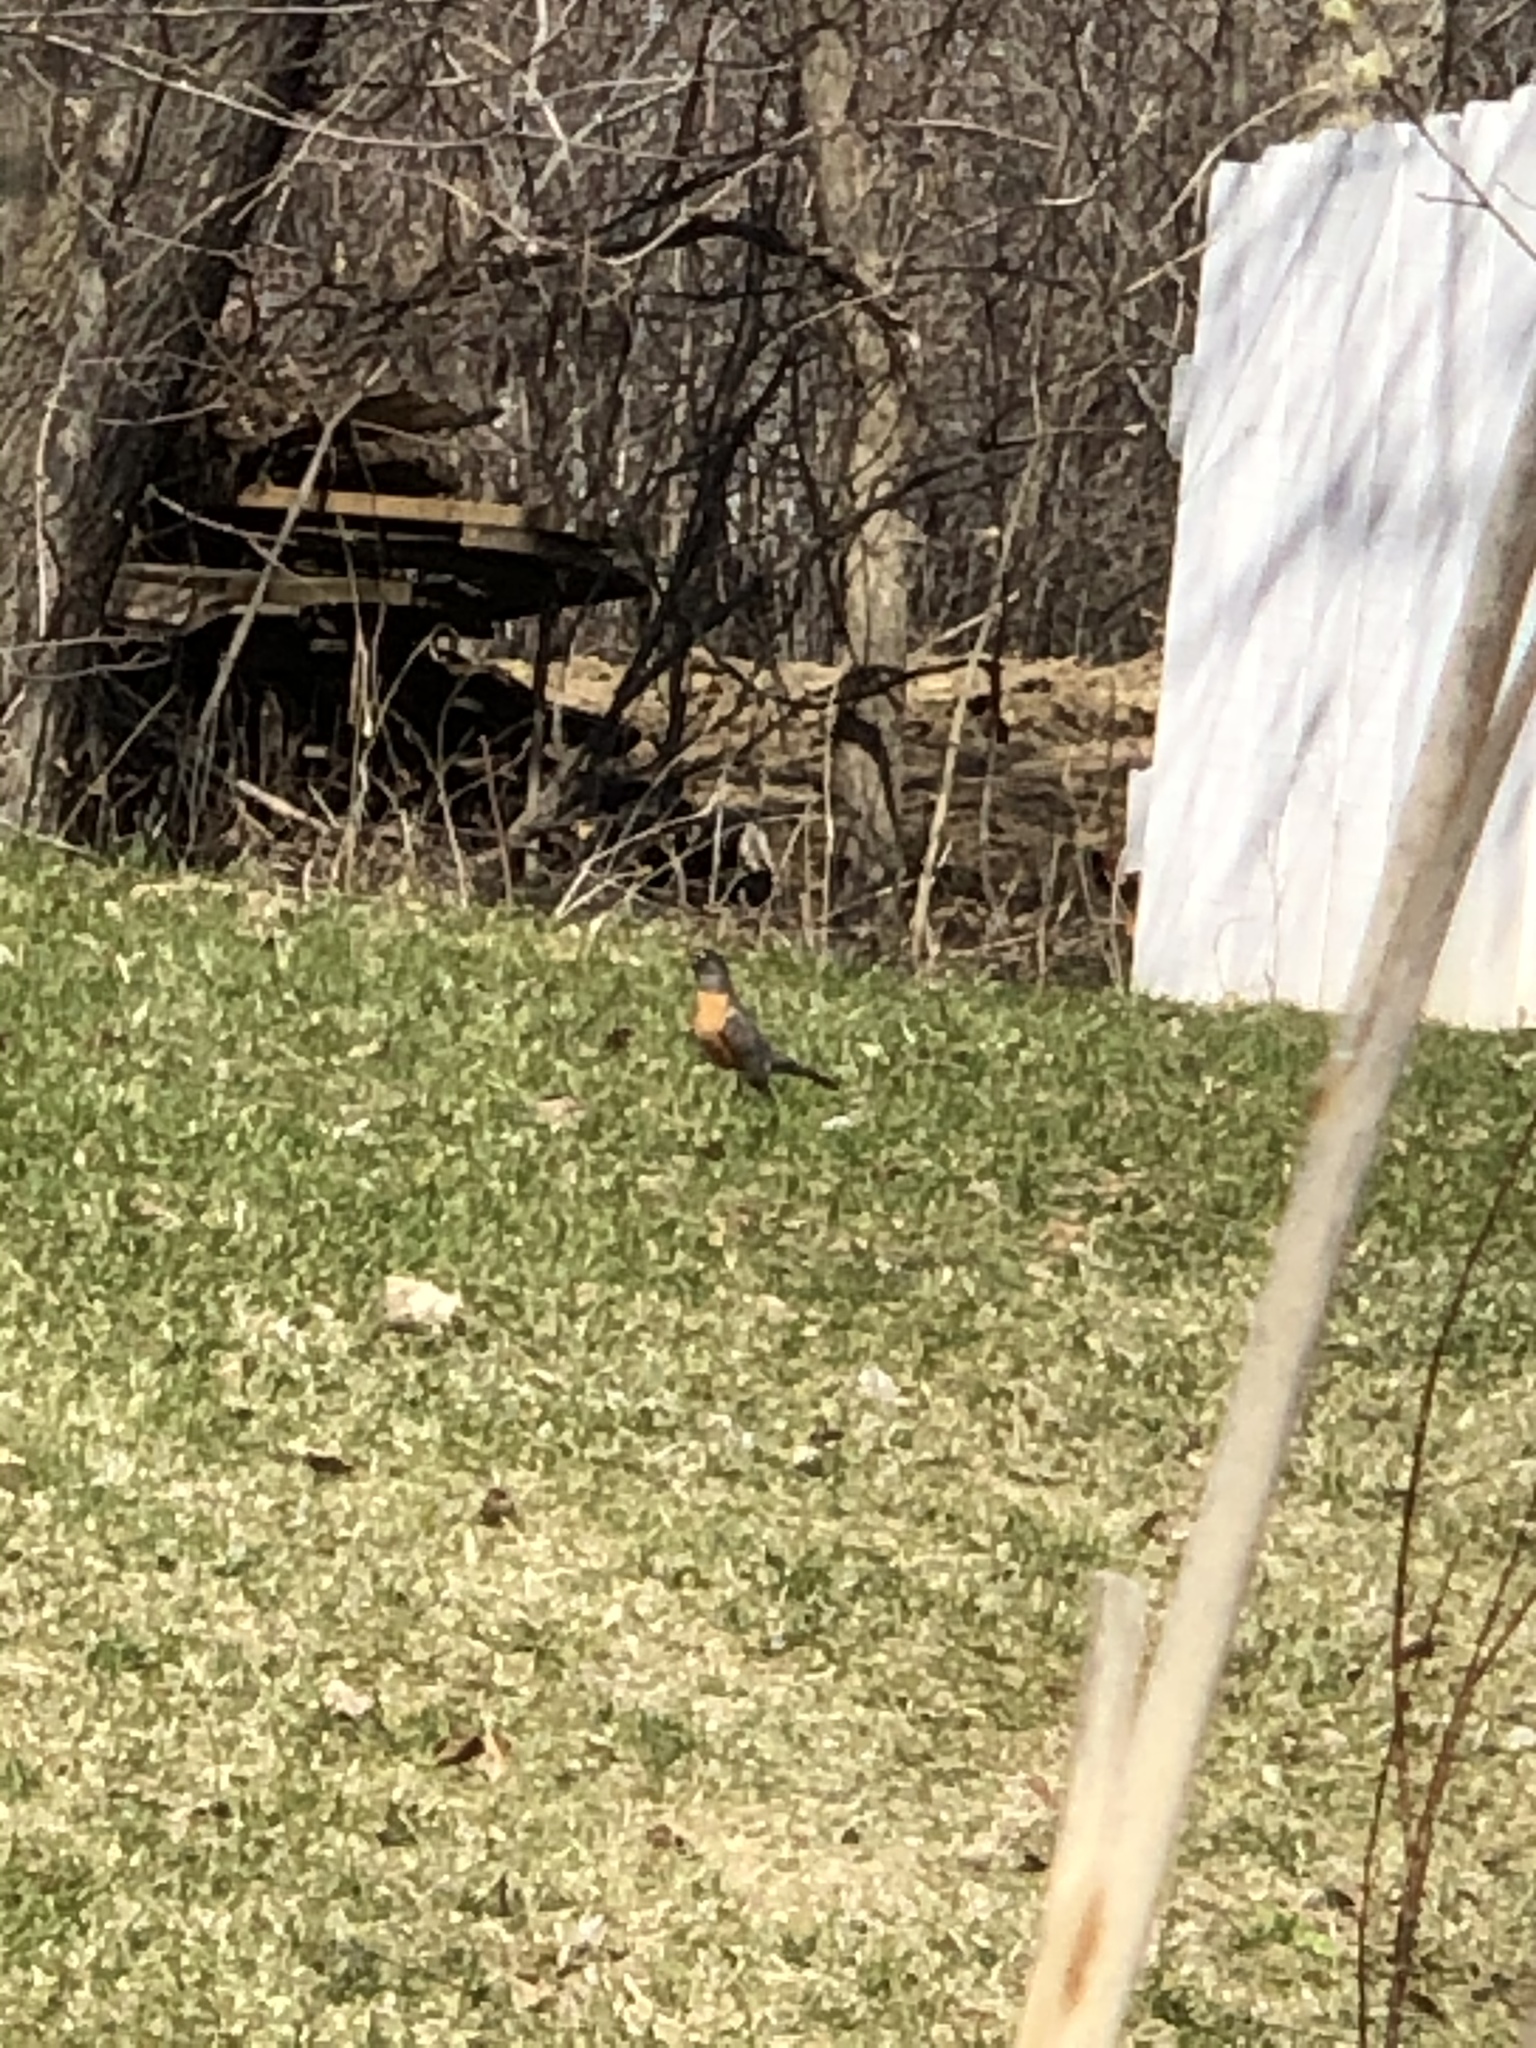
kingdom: Animalia
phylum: Chordata
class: Aves
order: Passeriformes
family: Turdidae
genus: Turdus
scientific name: Turdus migratorius
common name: American robin
